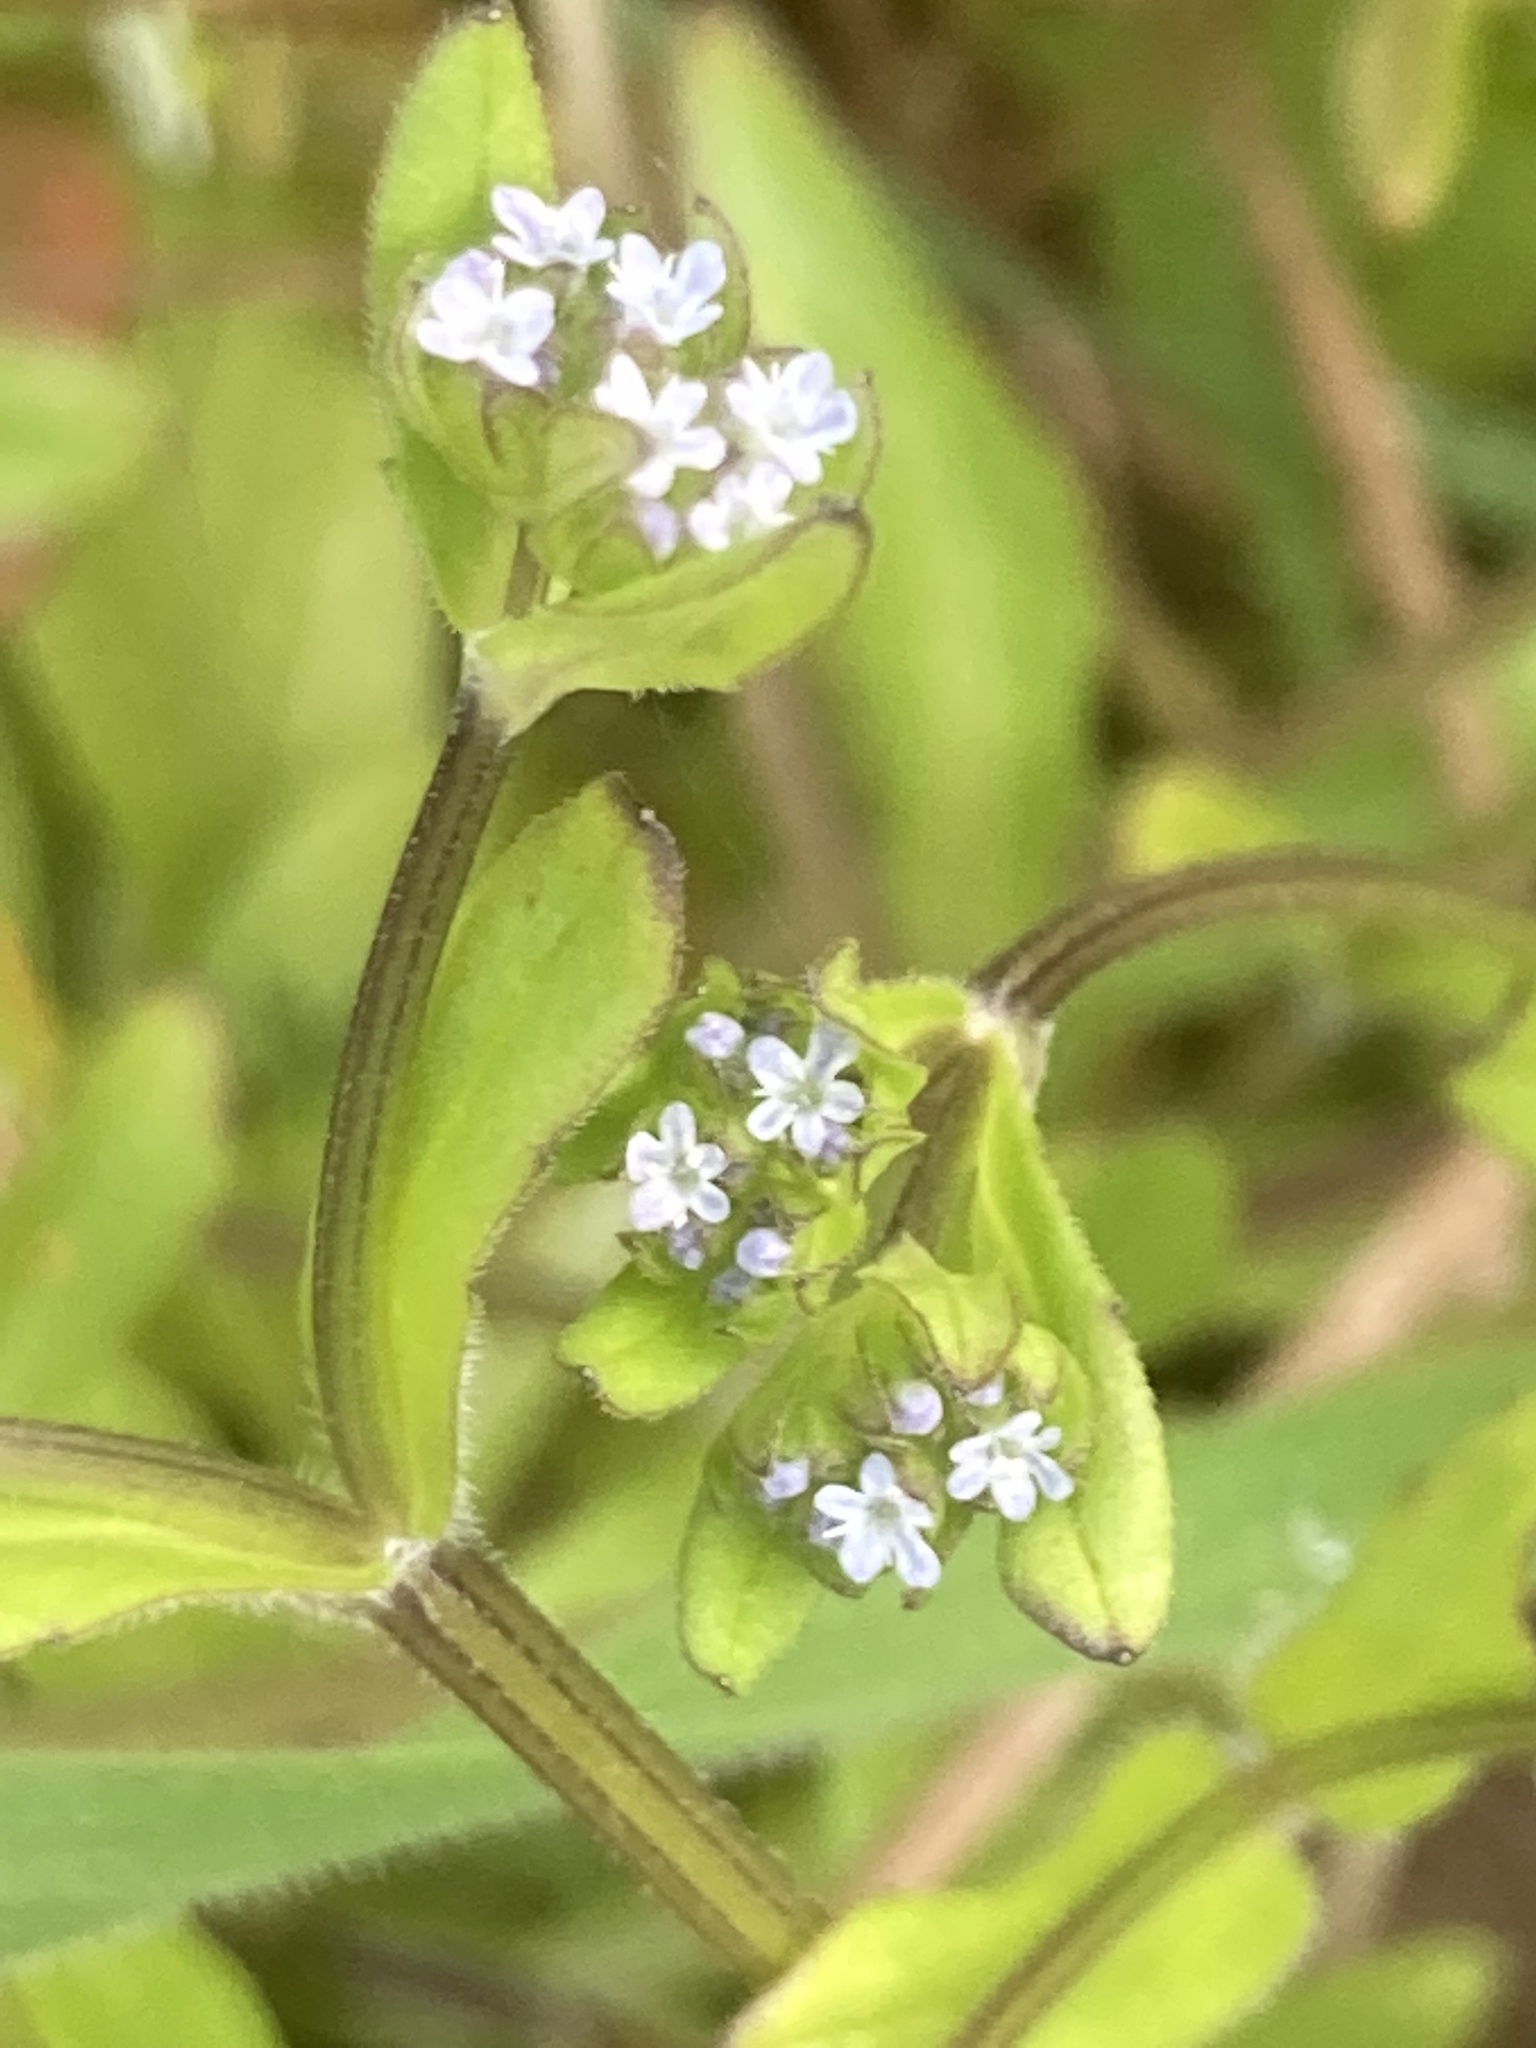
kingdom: Plantae
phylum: Tracheophyta
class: Magnoliopsida
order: Dipsacales
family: Caprifoliaceae
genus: Valerianella
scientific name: Valerianella locusta
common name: Common cornsalad
